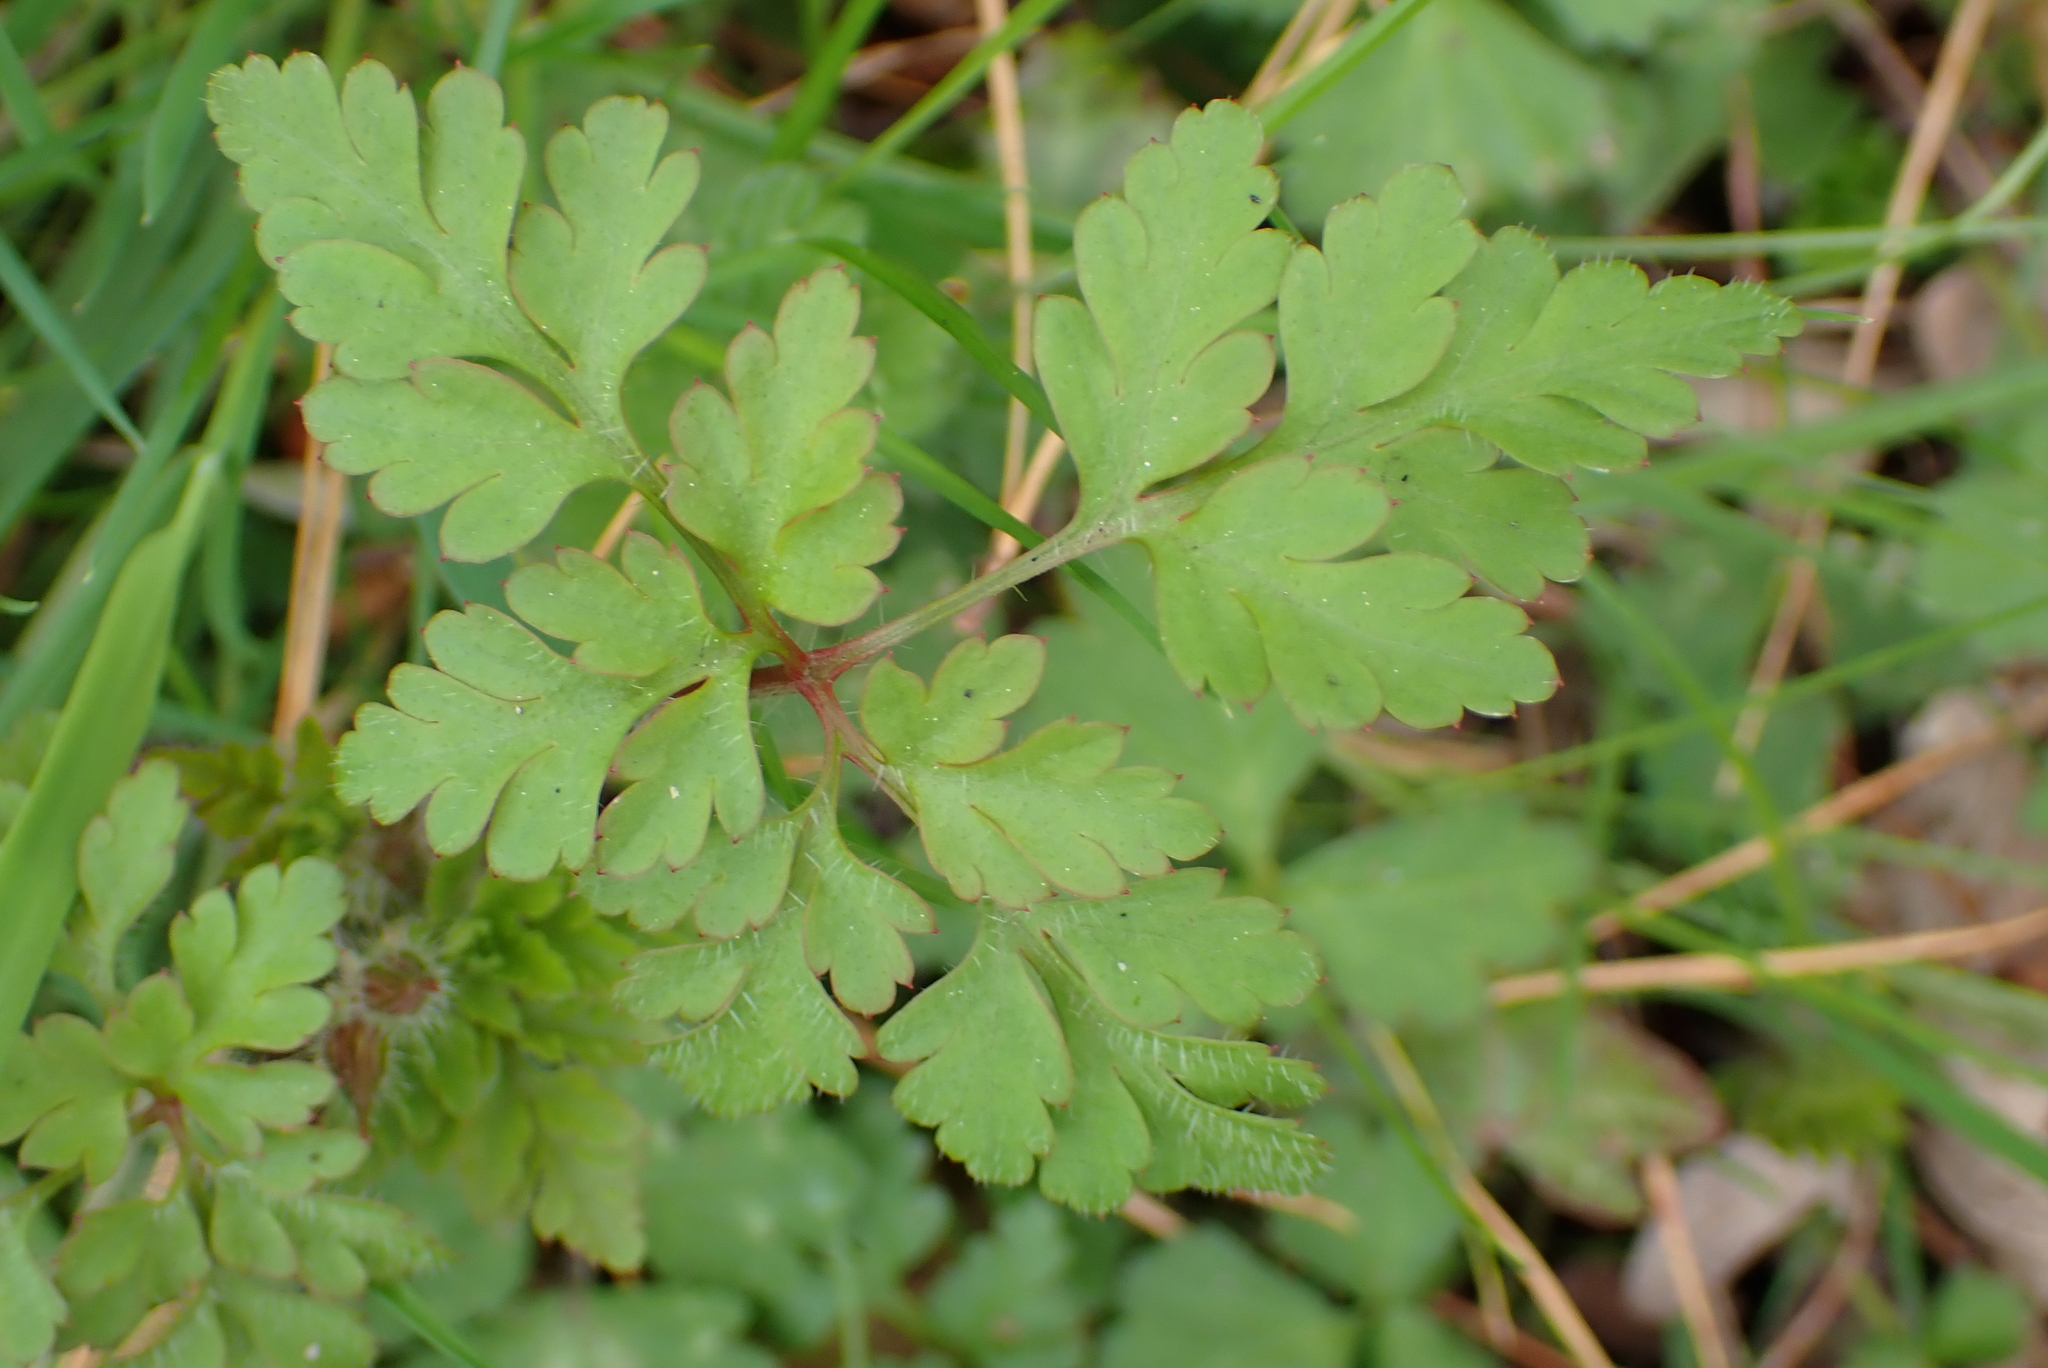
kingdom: Plantae
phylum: Tracheophyta
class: Magnoliopsida
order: Geraniales
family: Geraniaceae
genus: Geranium
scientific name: Geranium robertianum
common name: Herb-robert
